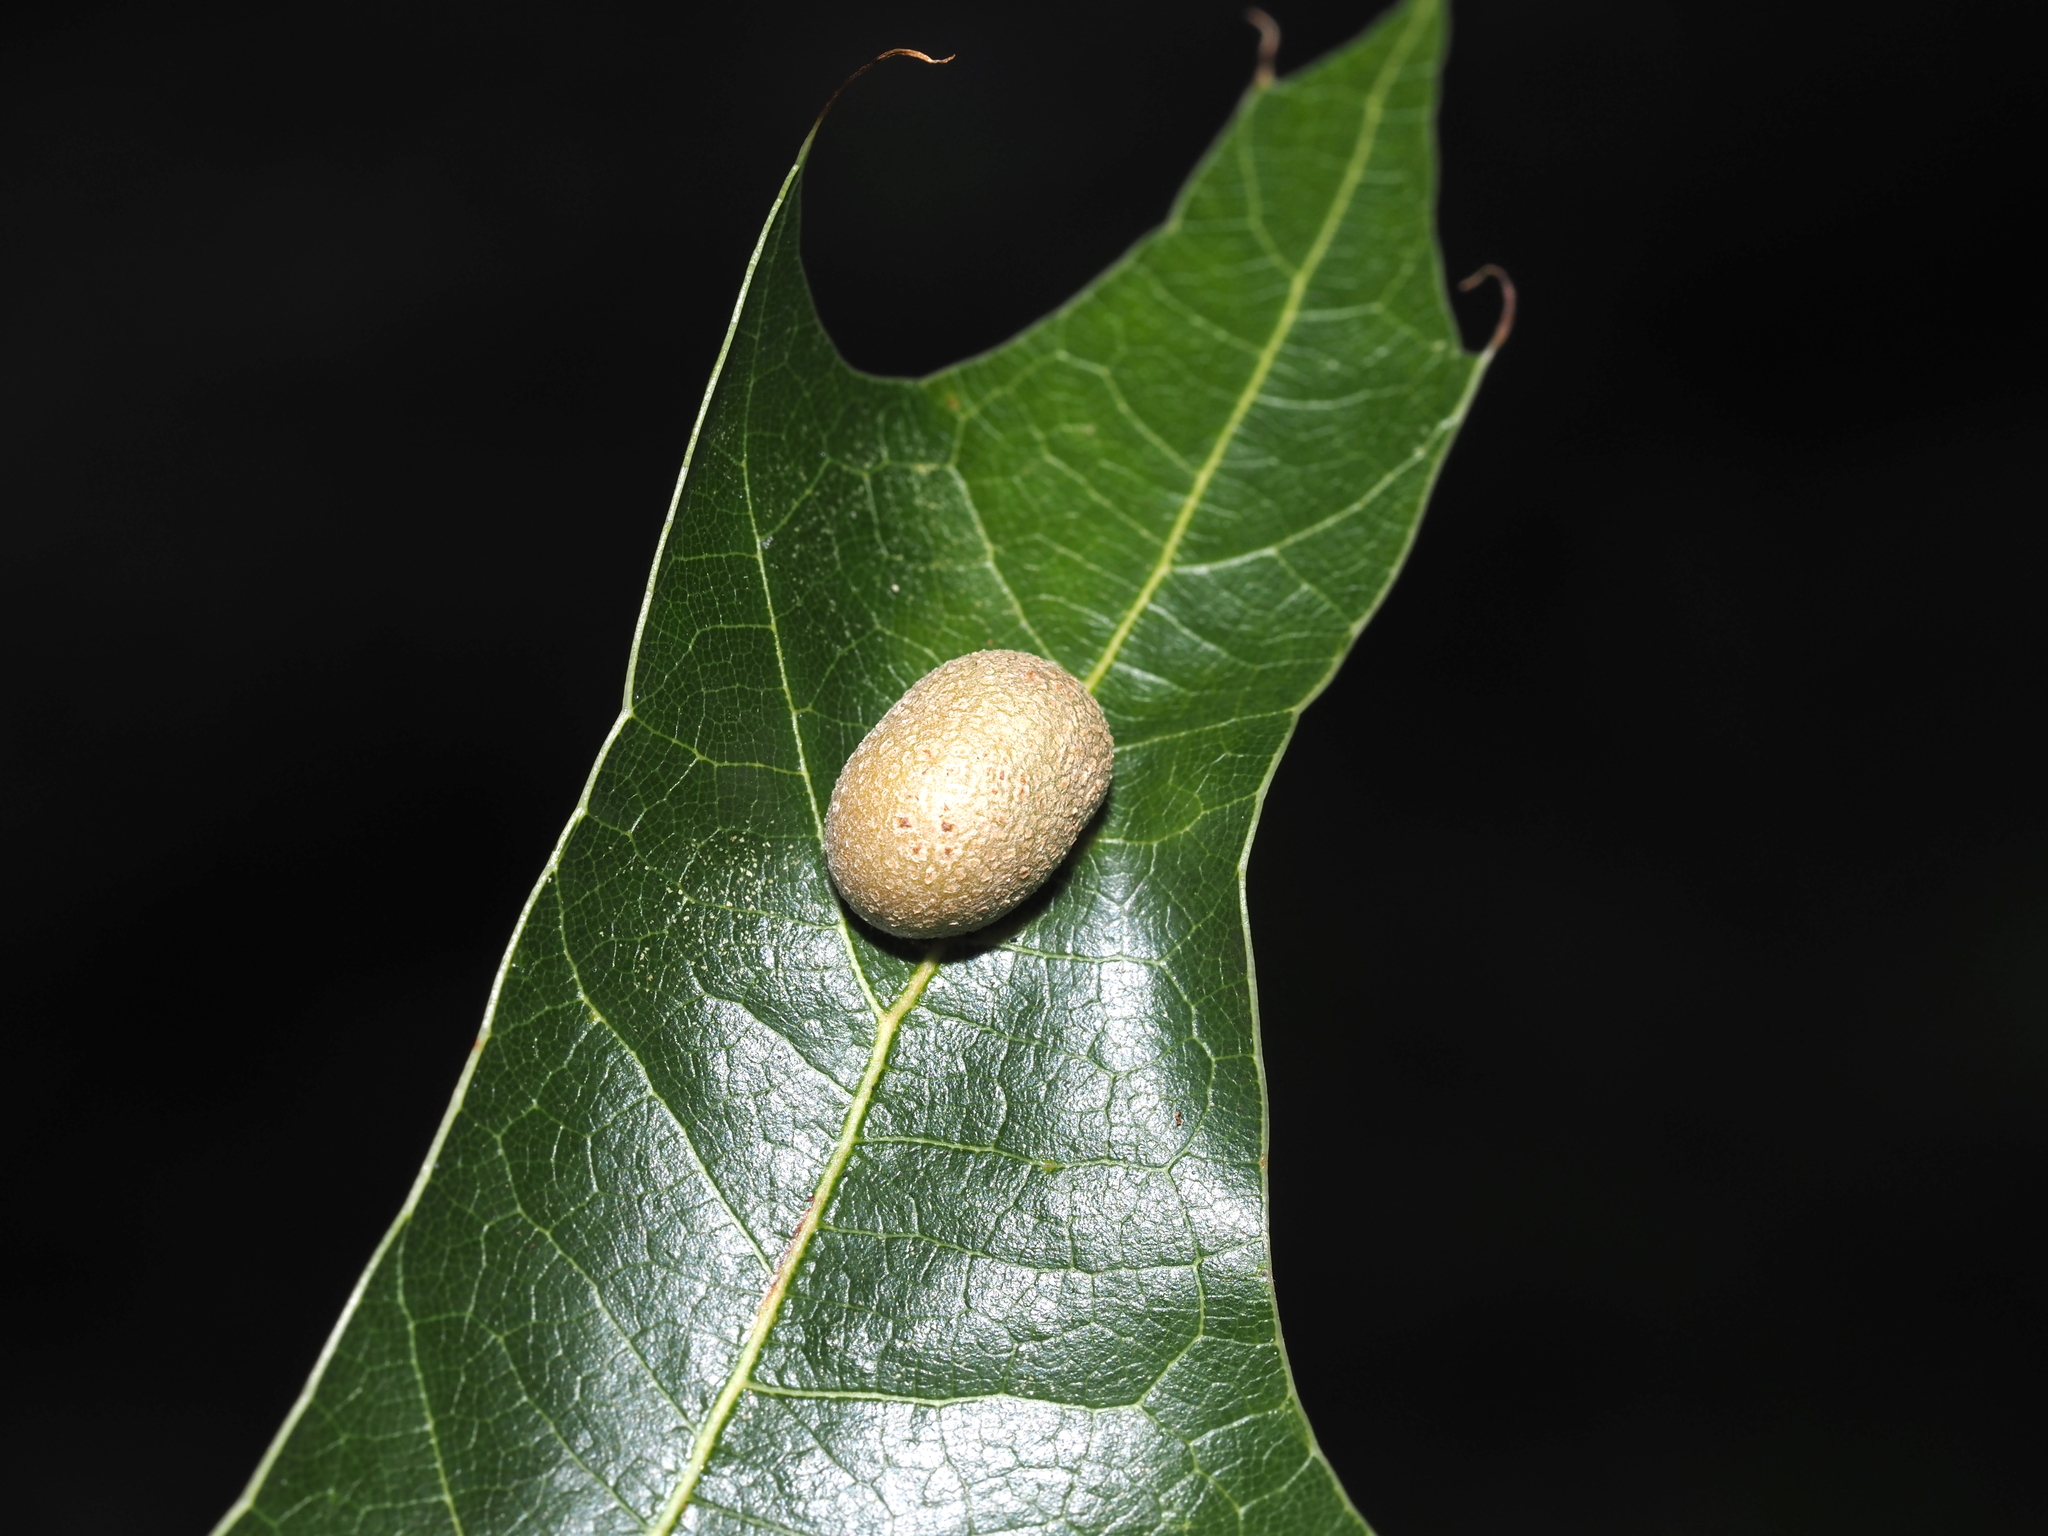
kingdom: Animalia
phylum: Arthropoda
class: Insecta
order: Diptera
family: Cecidomyiidae
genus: Polystepha
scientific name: Polystepha pilulae
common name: Oak leaf gall midge
